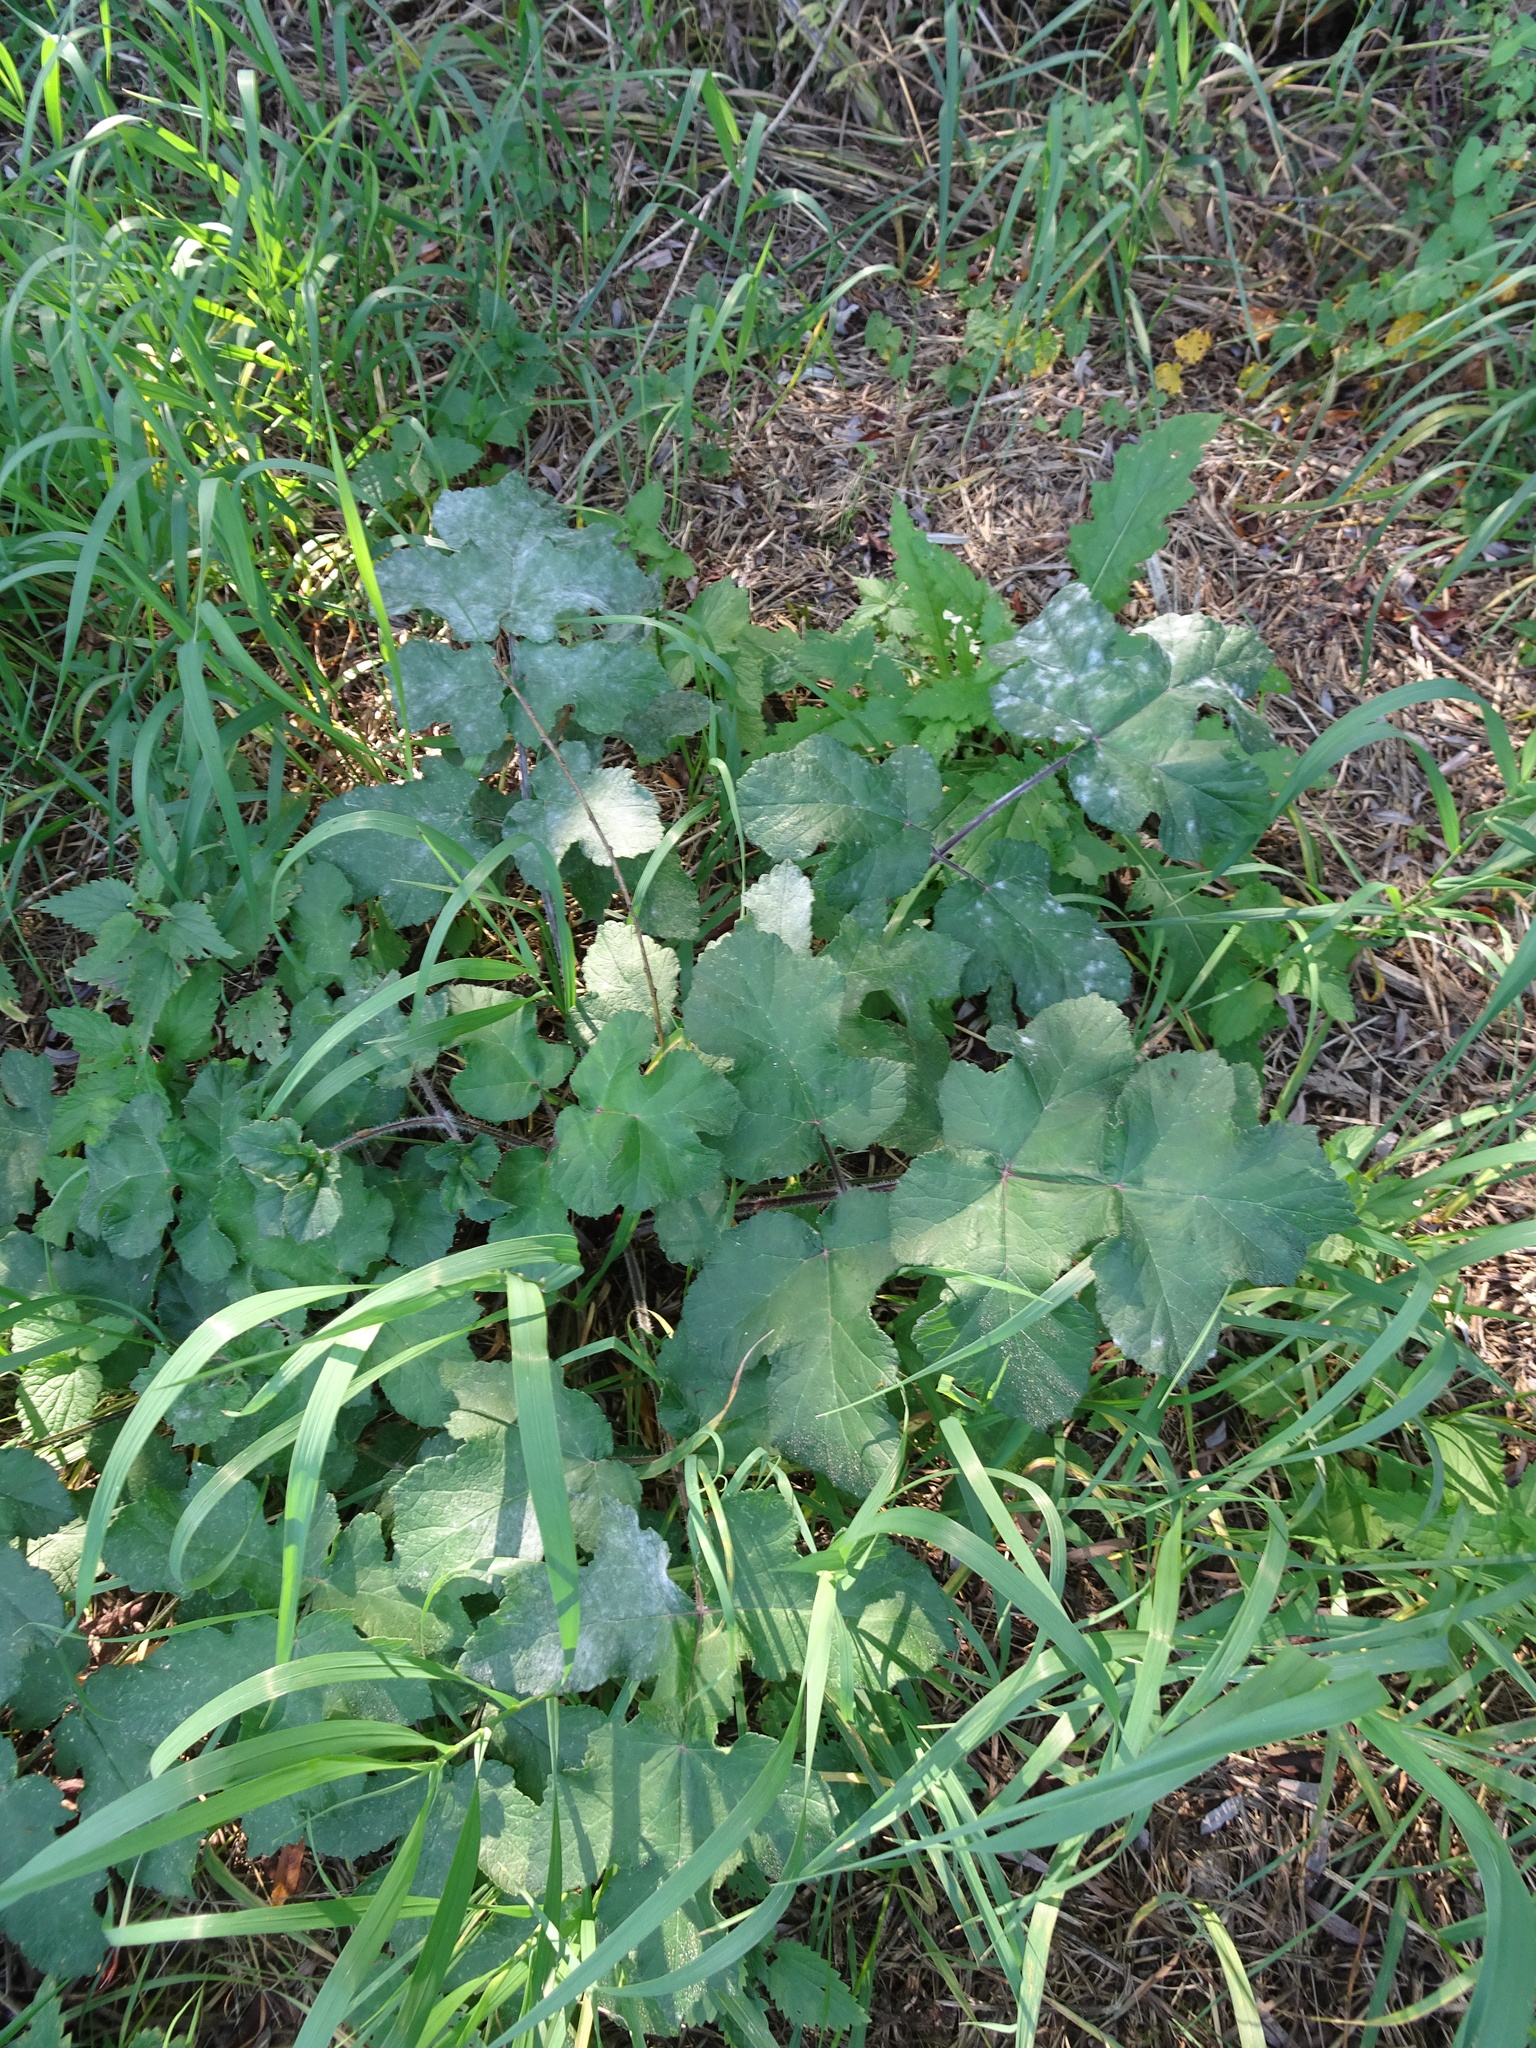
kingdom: Plantae
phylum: Tracheophyta
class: Magnoliopsida
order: Apiales
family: Apiaceae
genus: Heracleum
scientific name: Heracleum sphondylium
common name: Hogweed
